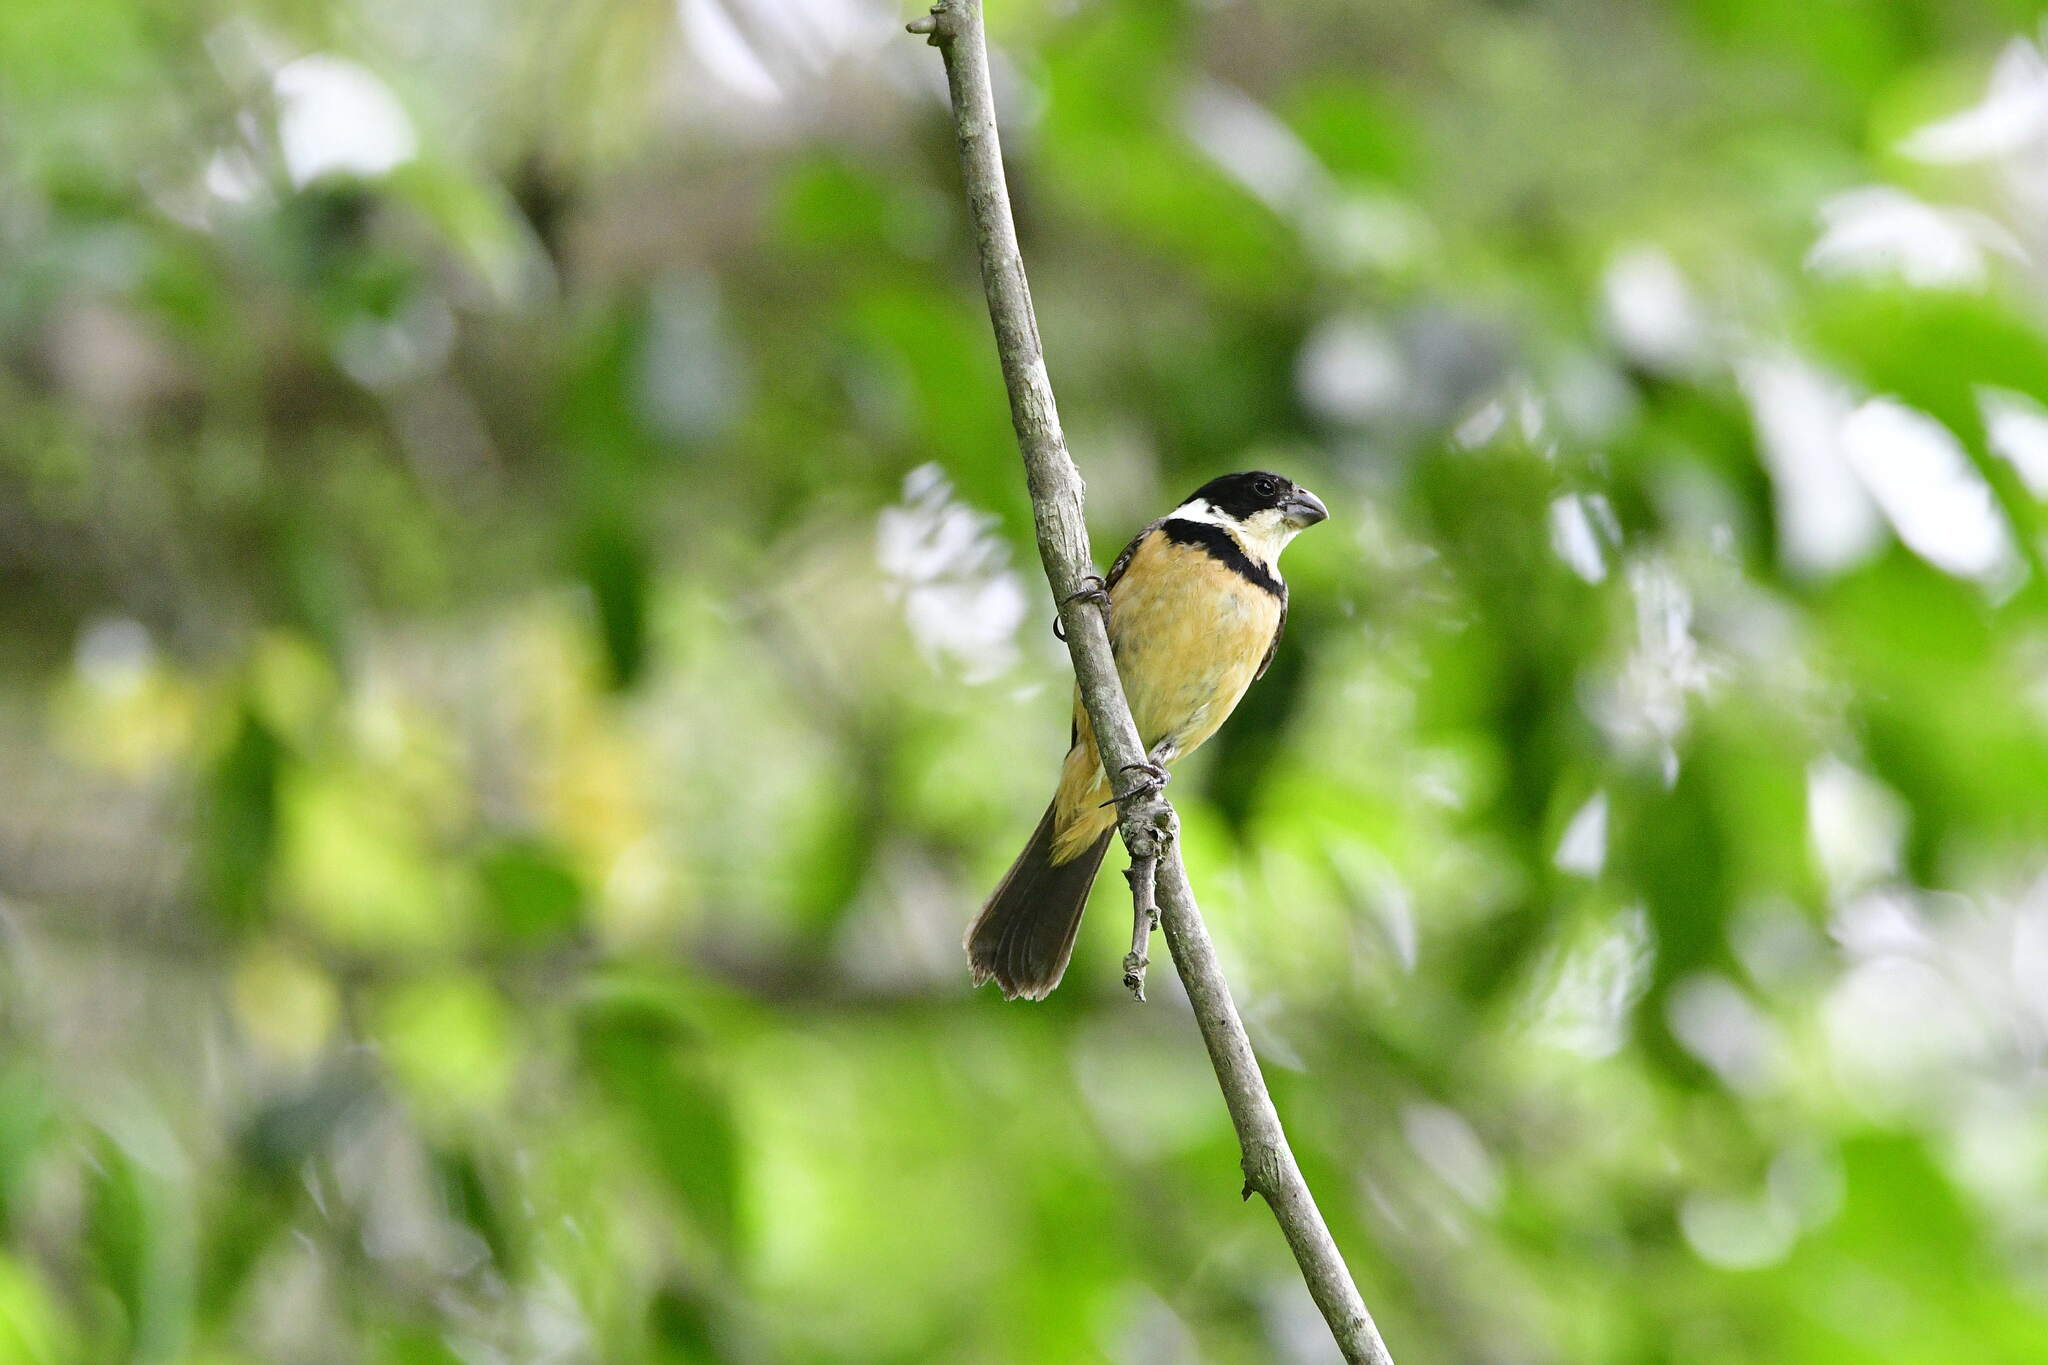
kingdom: Animalia
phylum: Chordata
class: Aves
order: Passeriformes
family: Thraupidae
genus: Sporophila
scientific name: Sporophila torqueola
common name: White-collared seedeater
